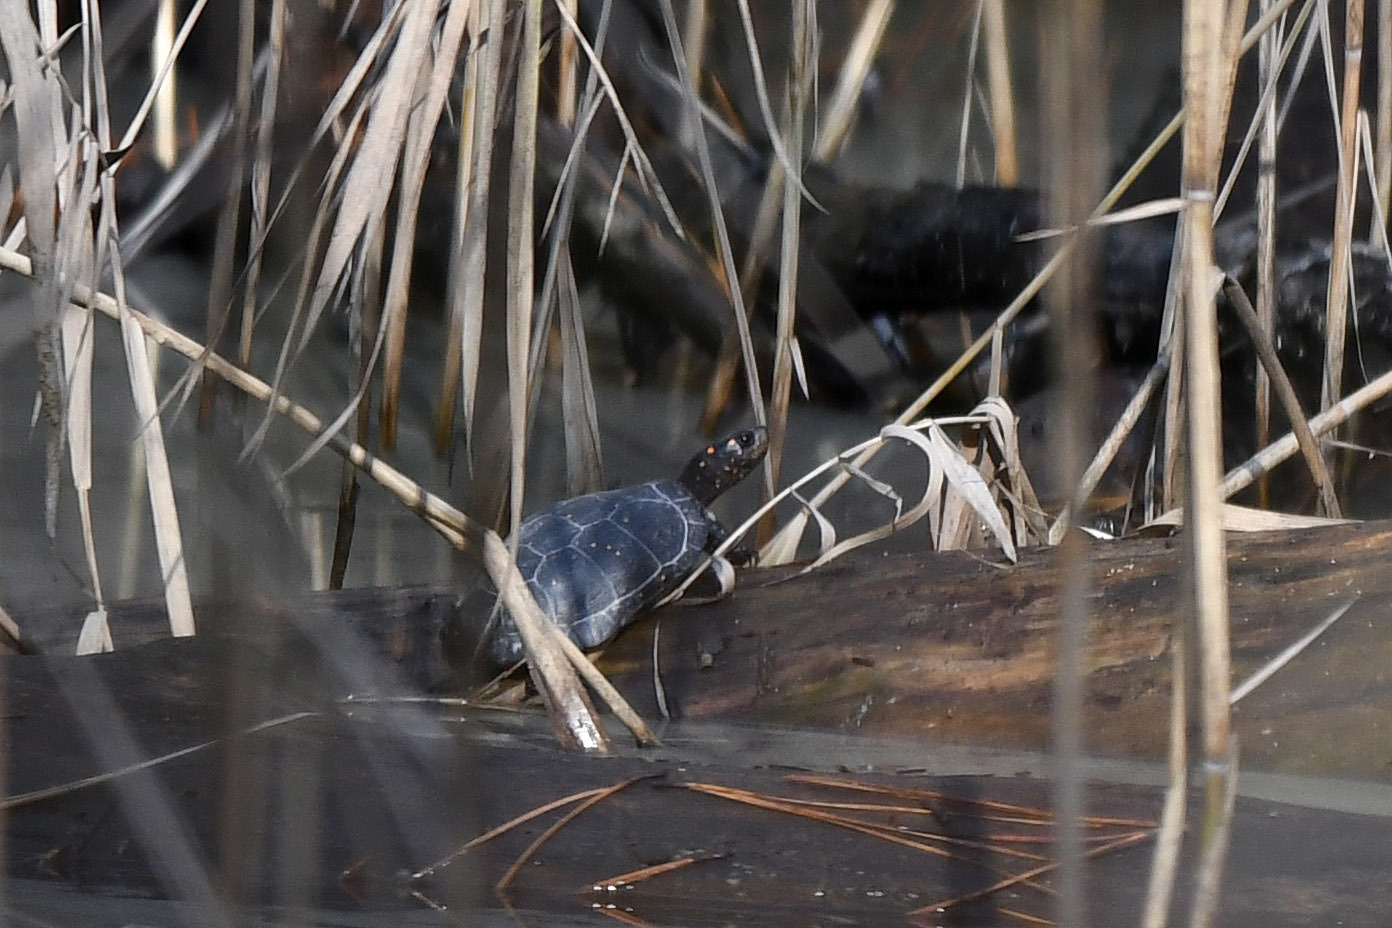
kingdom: Animalia
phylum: Chordata
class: Testudines
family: Emydidae
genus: Clemmys
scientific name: Clemmys guttata
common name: Spotted turtle
